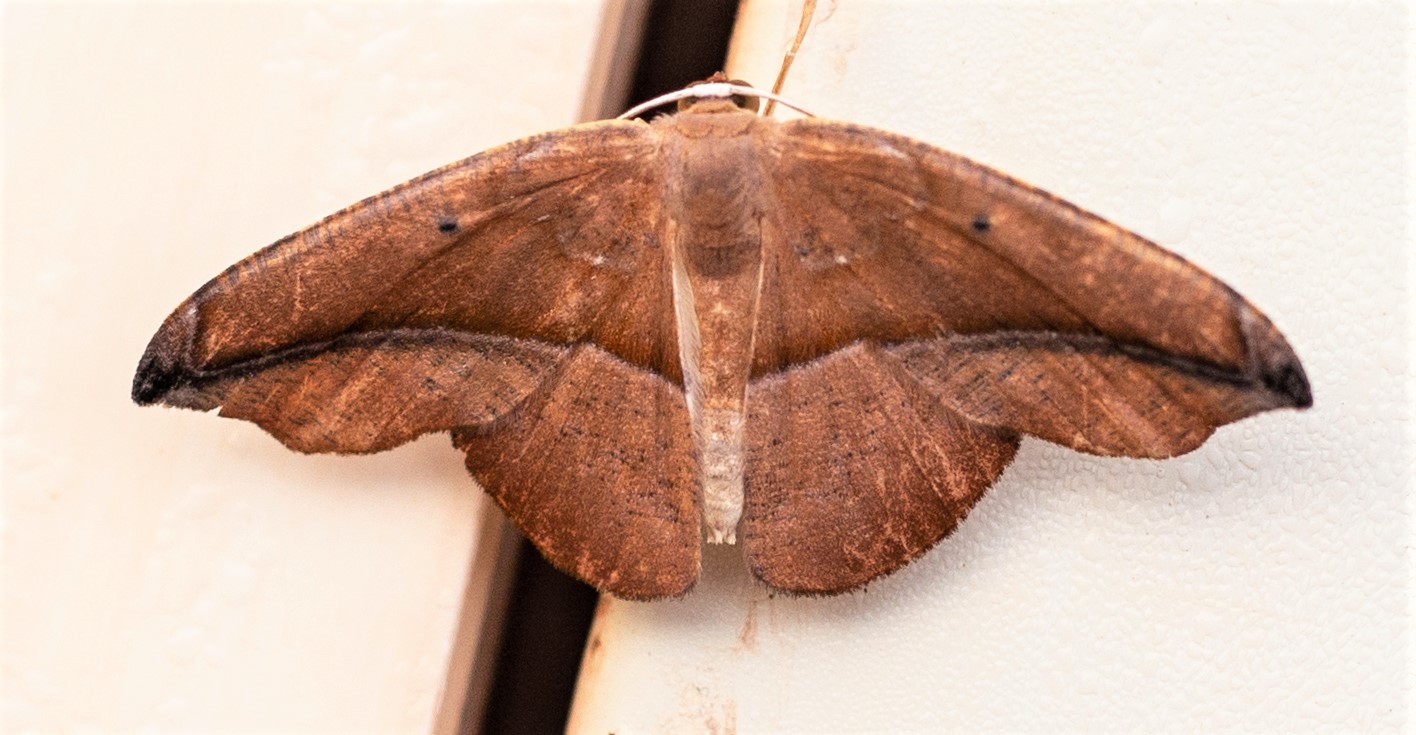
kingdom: Animalia
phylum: Arthropoda
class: Insecta
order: Lepidoptera
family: Geometridae
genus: Patalene
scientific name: Patalene virgultaria
